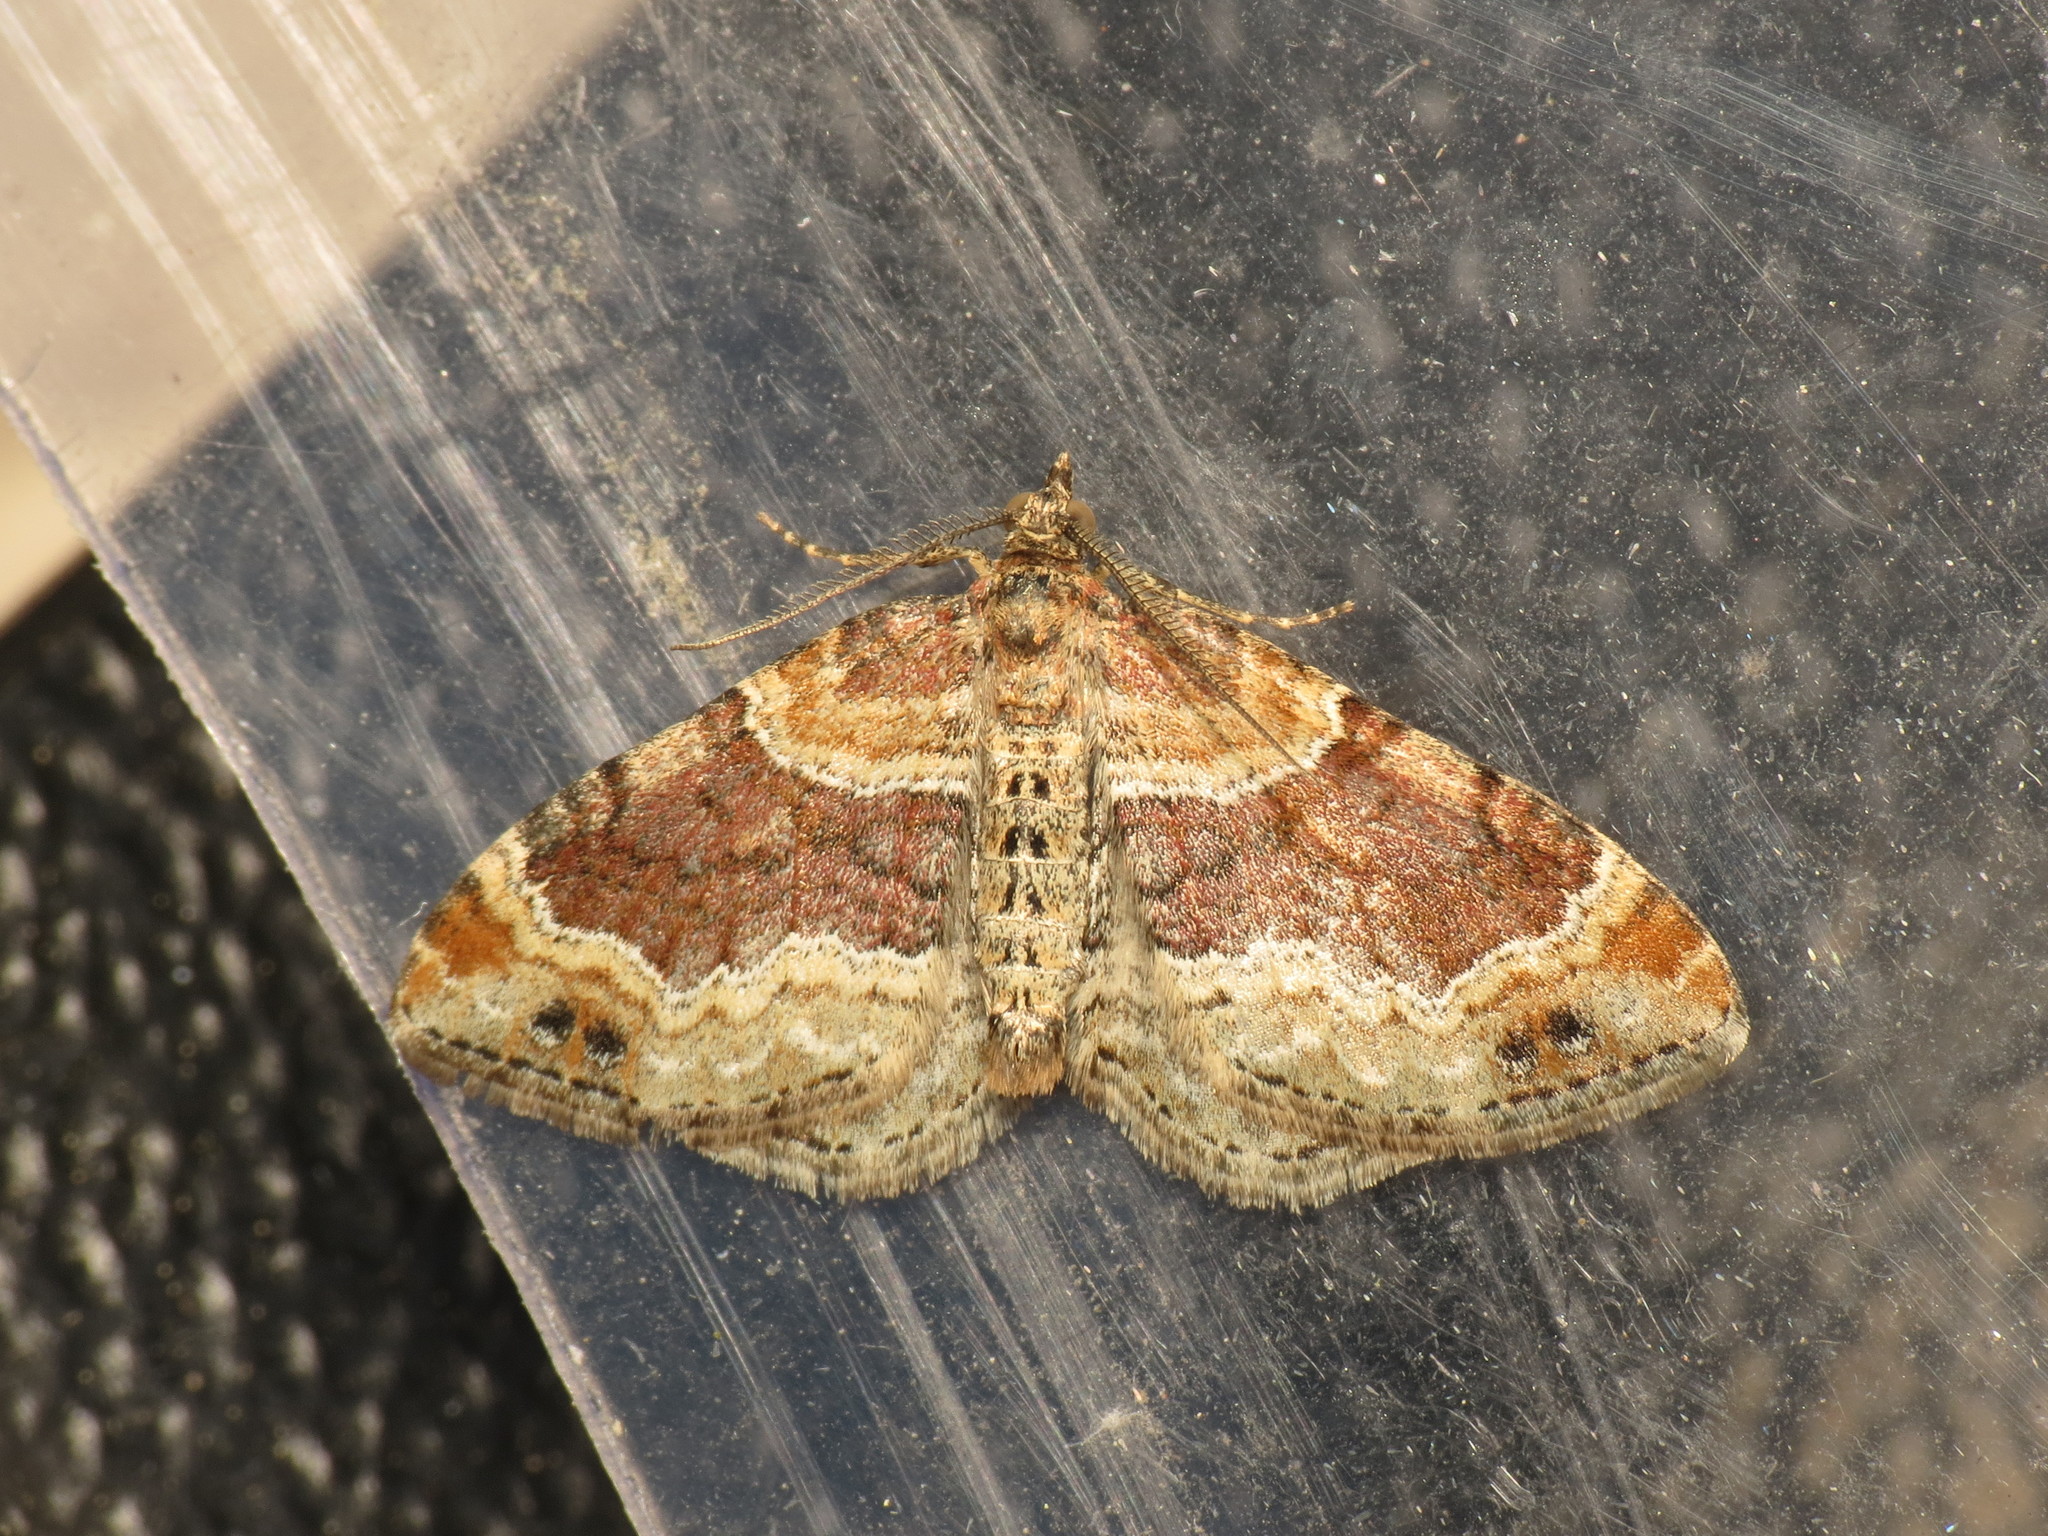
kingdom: Animalia
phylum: Arthropoda
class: Insecta
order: Lepidoptera
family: Geometridae
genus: Xanthorhoe
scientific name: Xanthorhoe spadicearia
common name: Red twin-spot carpet
